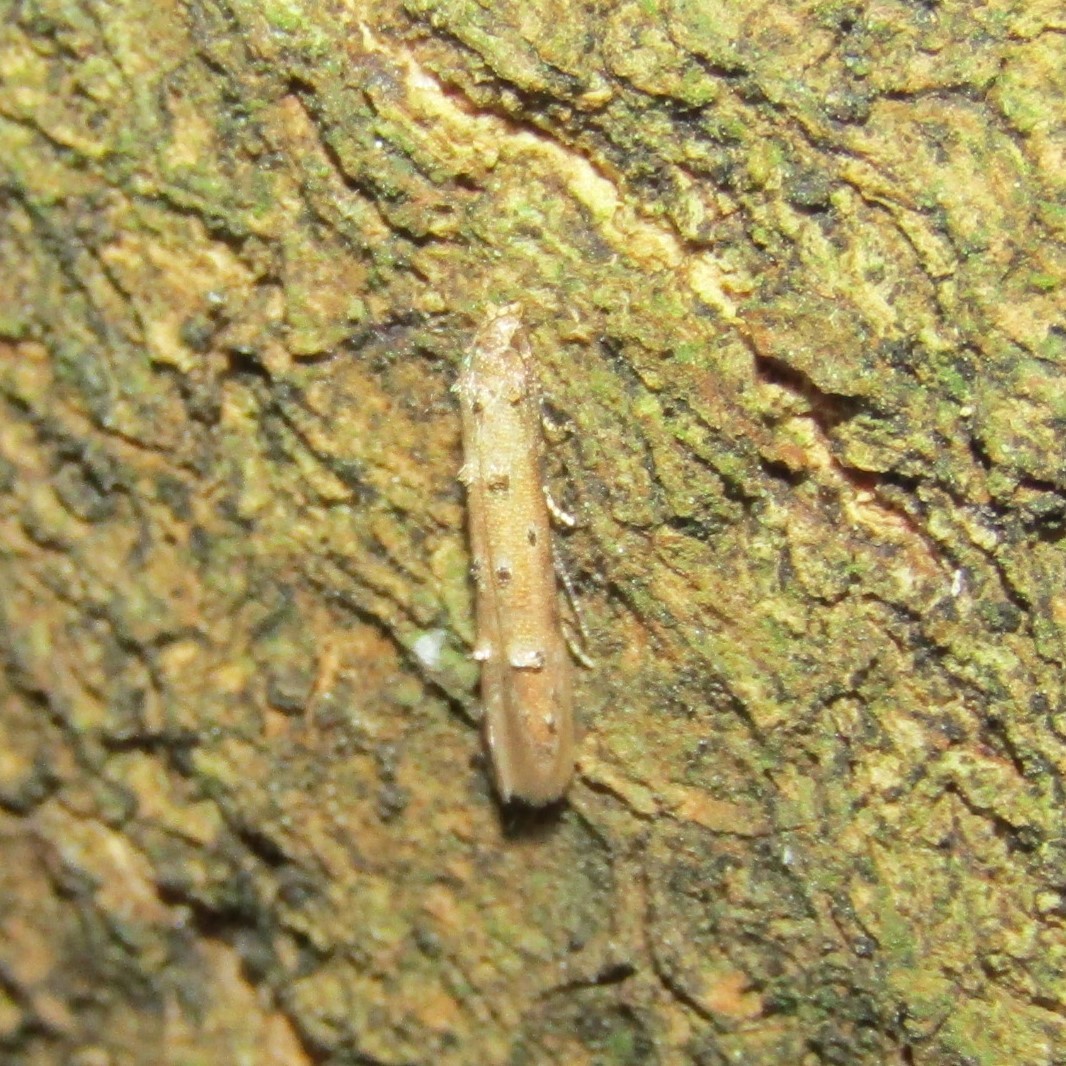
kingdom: Animalia
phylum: Arthropoda
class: Insecta
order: Lepidoptera
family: Elachistidae
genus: Microcolona
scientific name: Microcolona limodes
